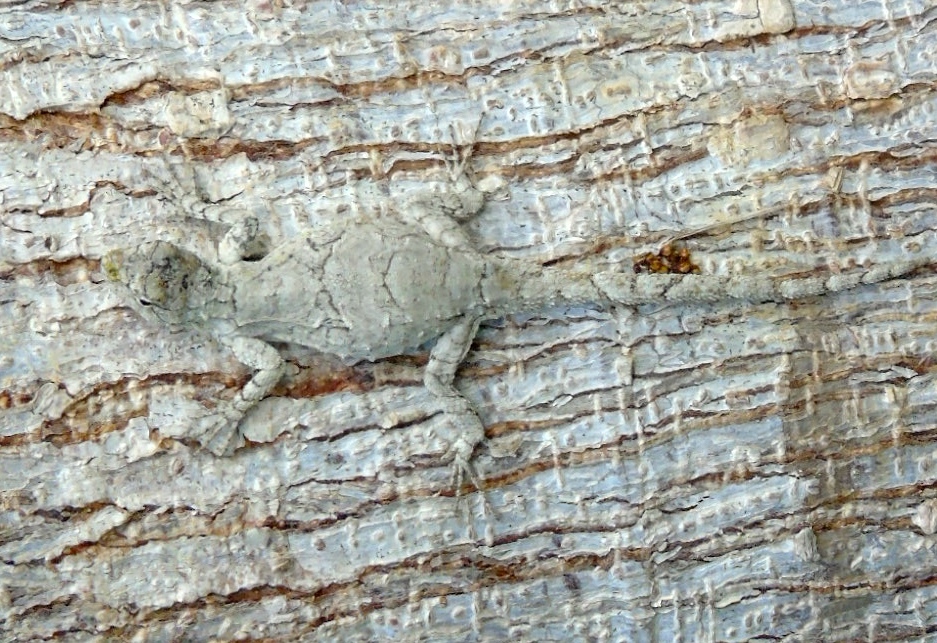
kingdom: Animalia
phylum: Chordata
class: Squamata
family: Phrynosomatidae
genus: Urosaurus
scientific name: Urosaurus bicarinatus
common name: Tropical tree lizard
